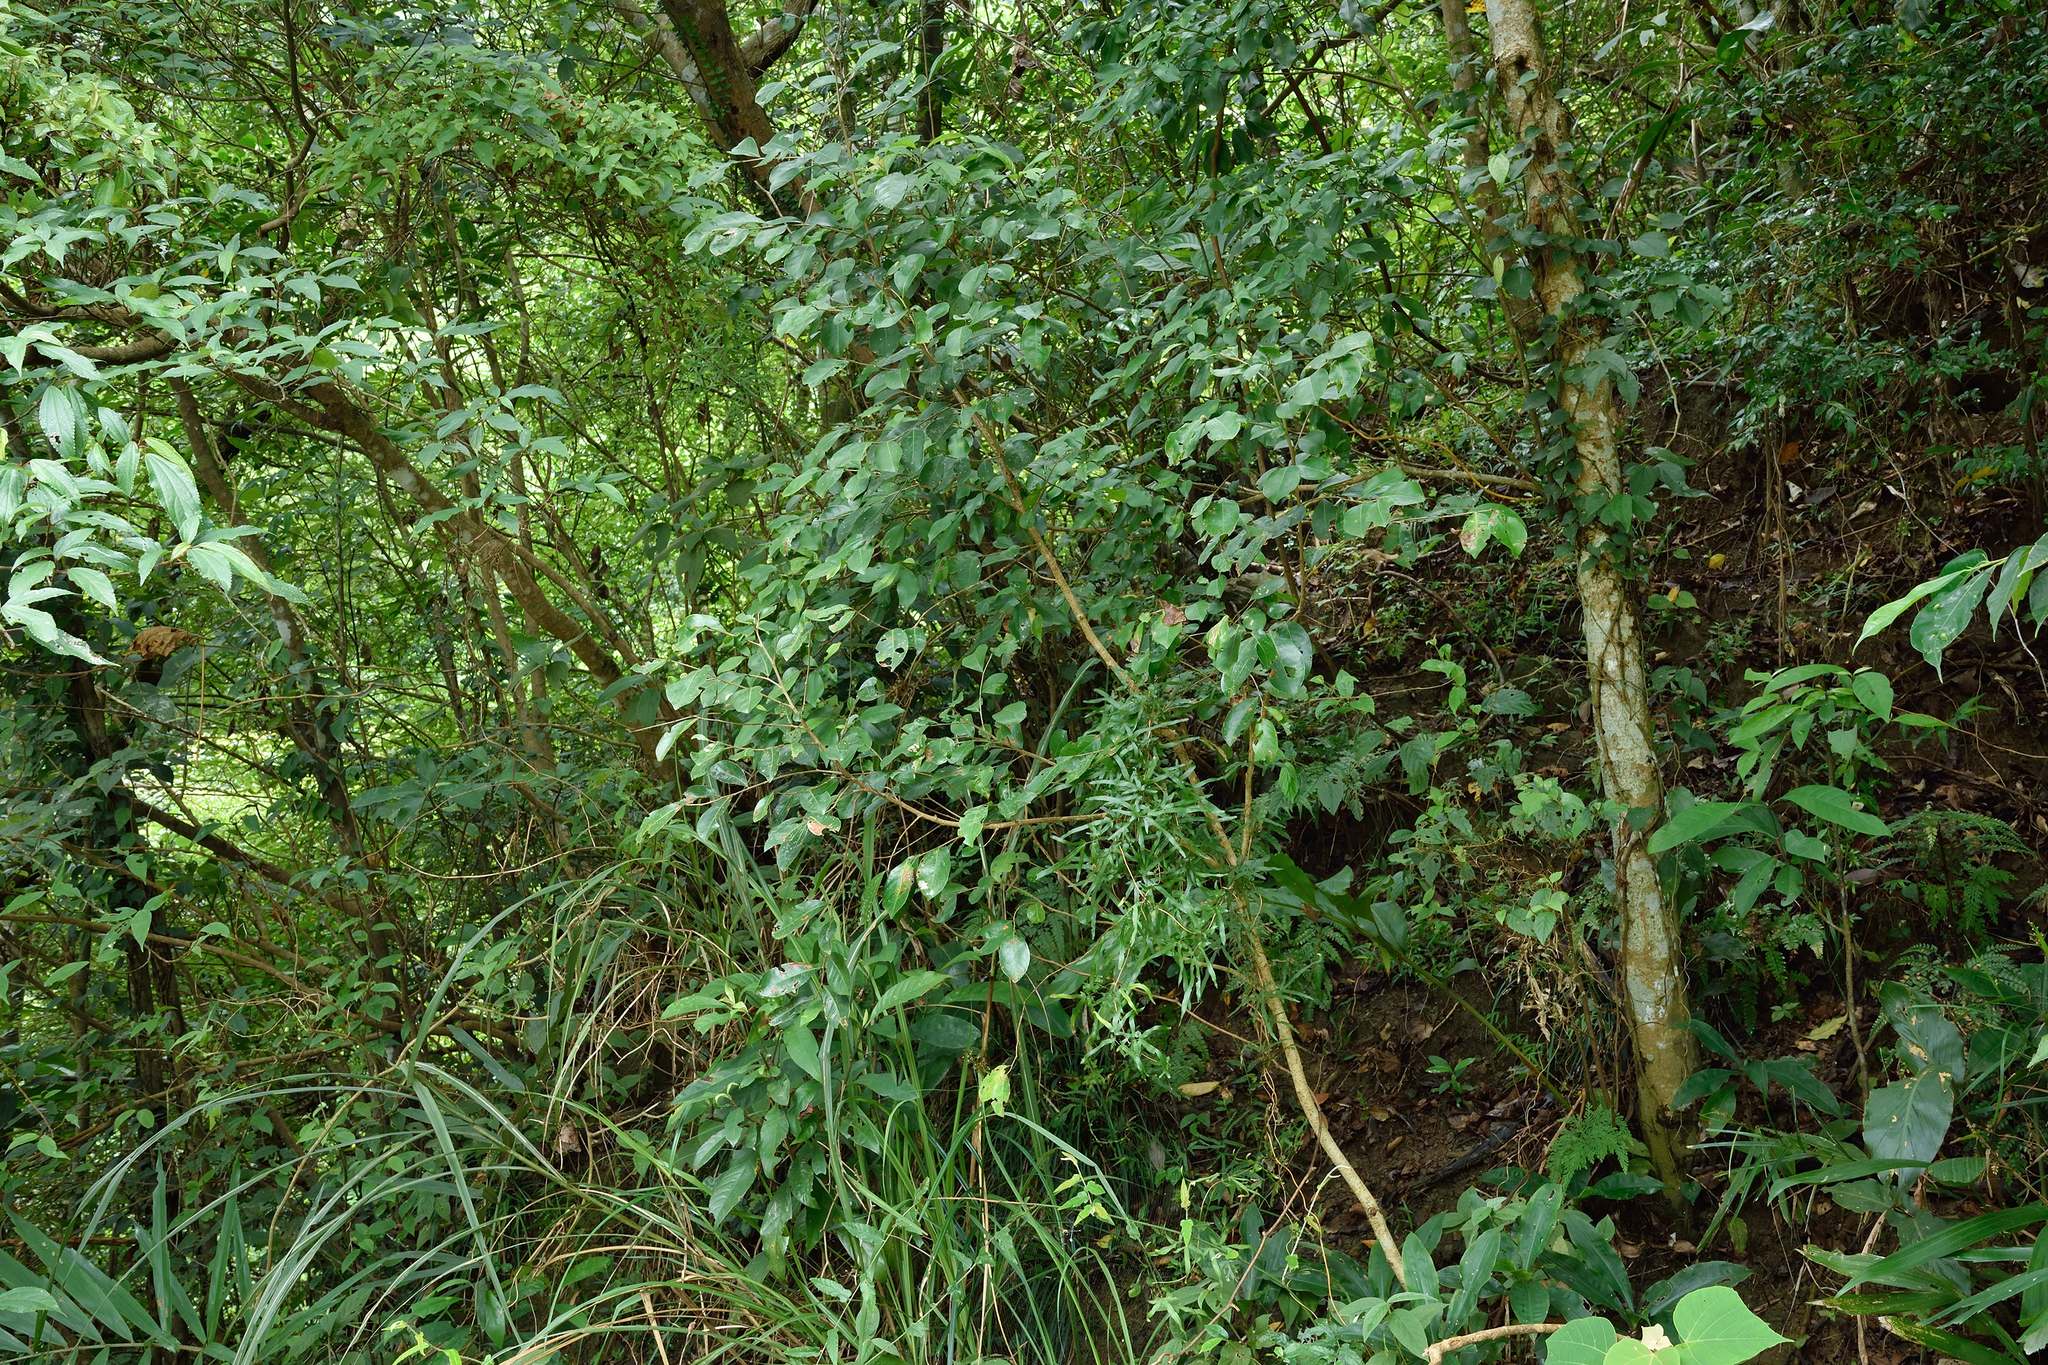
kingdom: Plantae
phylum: Tracheophyta
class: Magnoliopsida
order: Malpighiales
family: Phyllanthaceae
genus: Glochidion
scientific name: Glochidion rubrum
